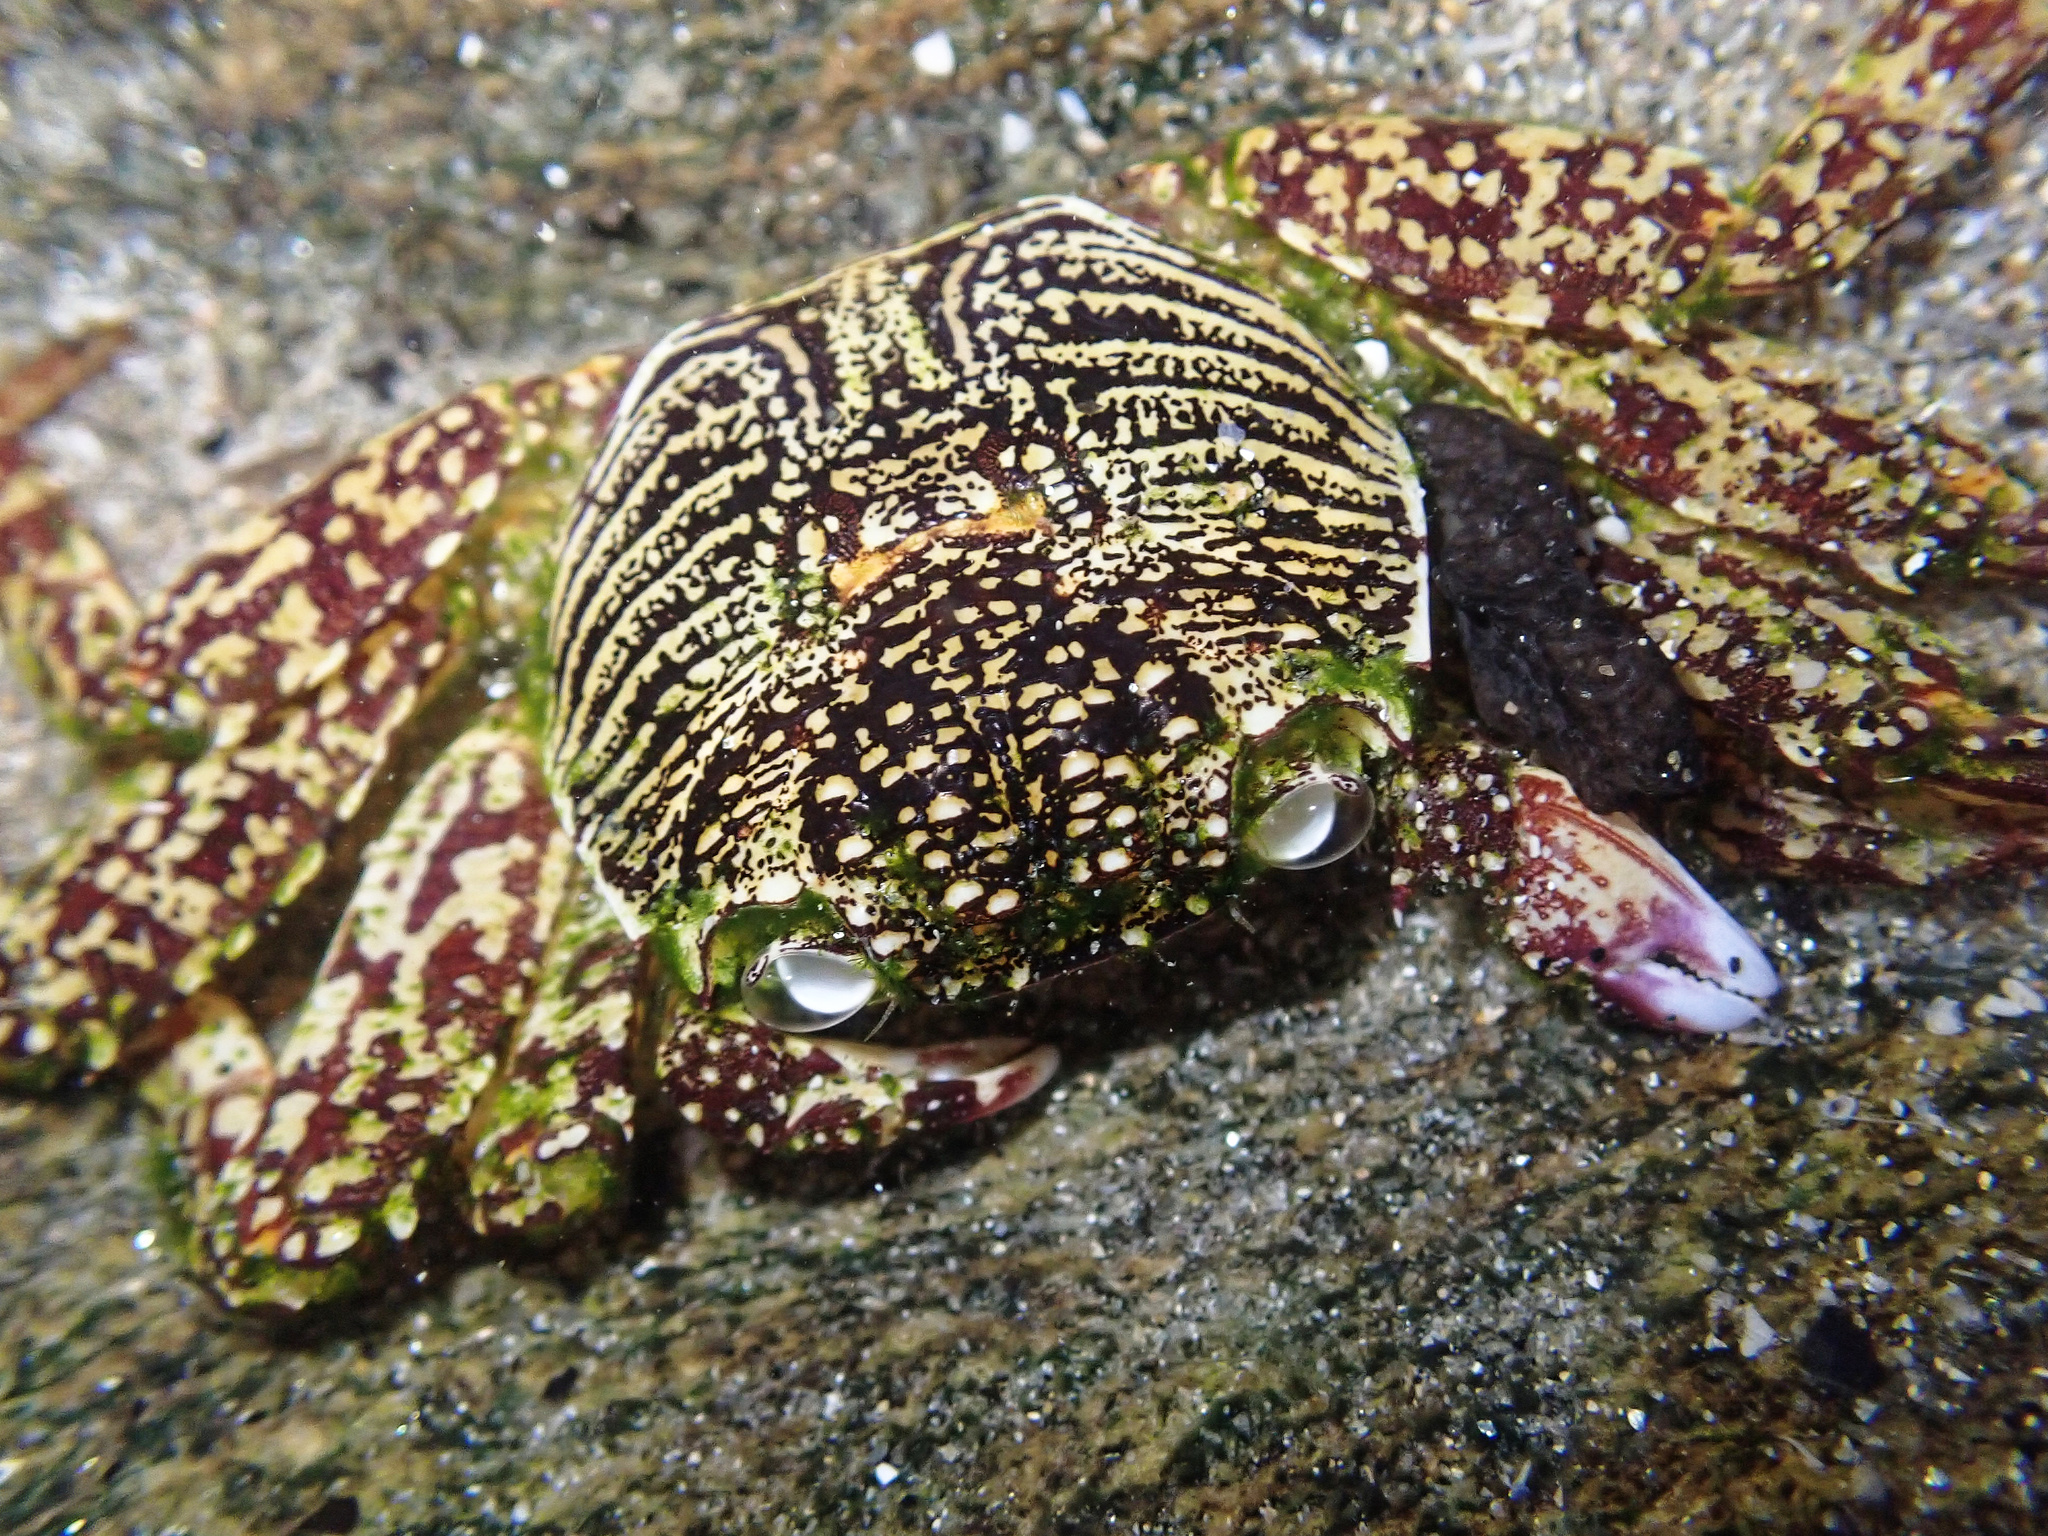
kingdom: Animalia
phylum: Arthropoda
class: Malacostraca
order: Decapoda
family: Grapsidae
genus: Grapsus
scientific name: Grapsus albolineatus
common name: Mottled lightfoot crab
